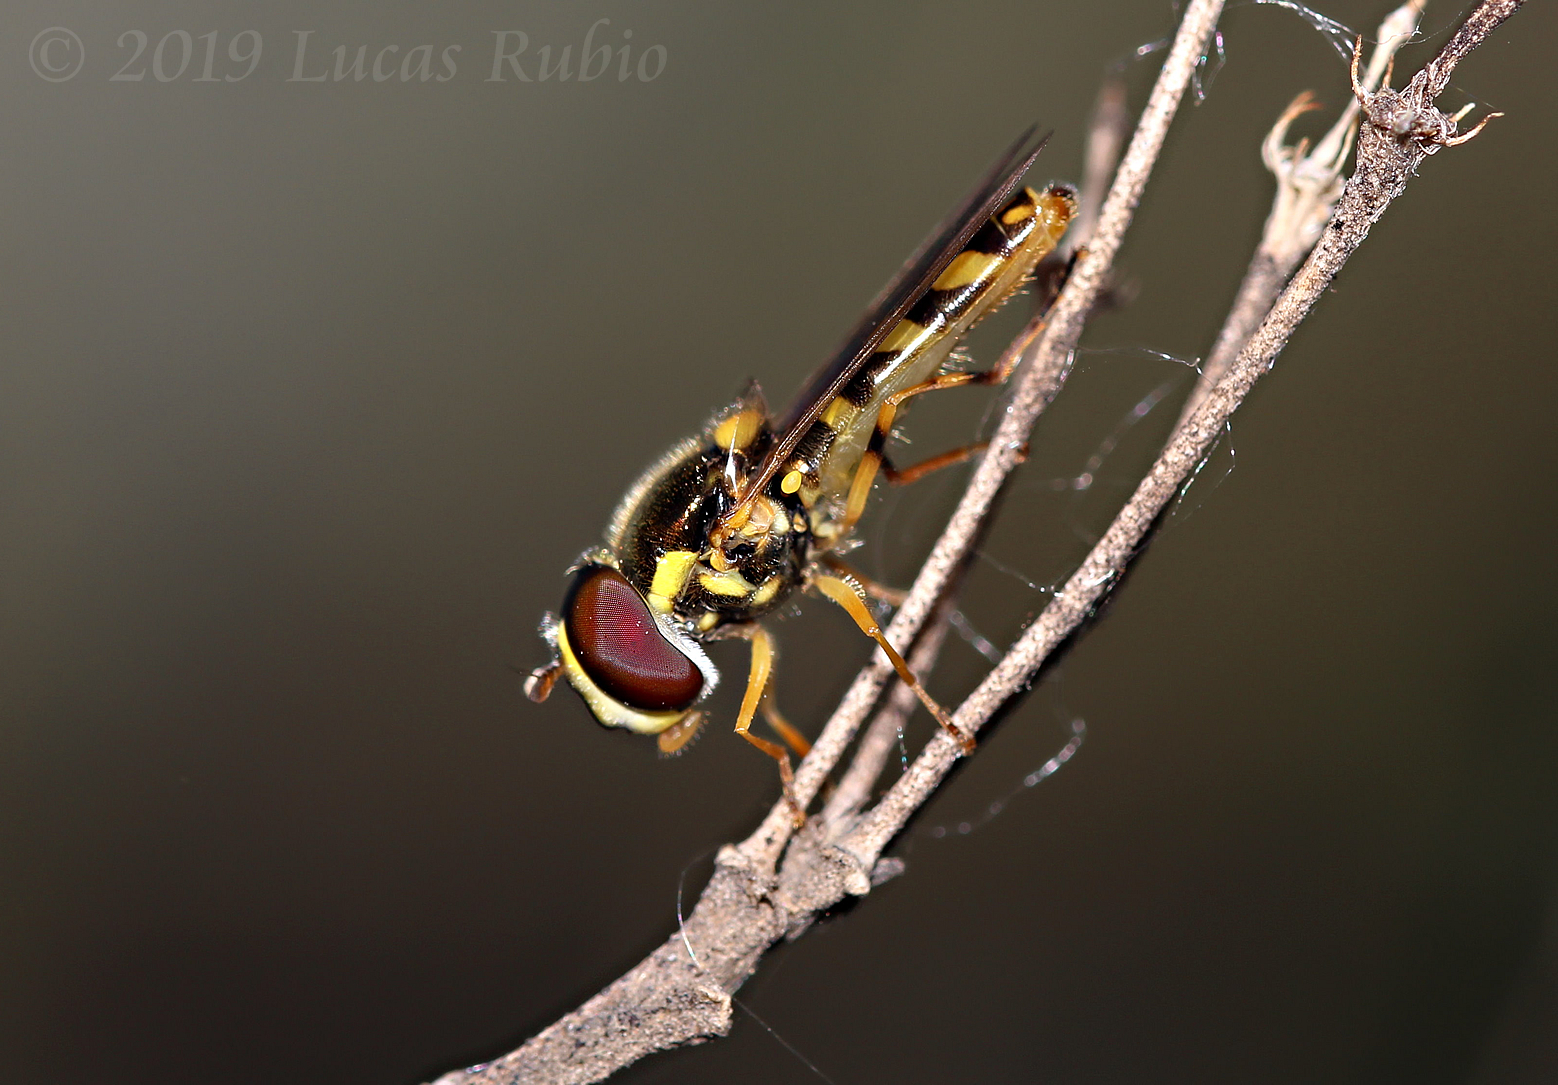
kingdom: Animalia
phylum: Arthropoda
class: Insecta
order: Diptera
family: Syrphidae
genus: Allograpta
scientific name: Allograpta exotica
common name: Syrphid fly
